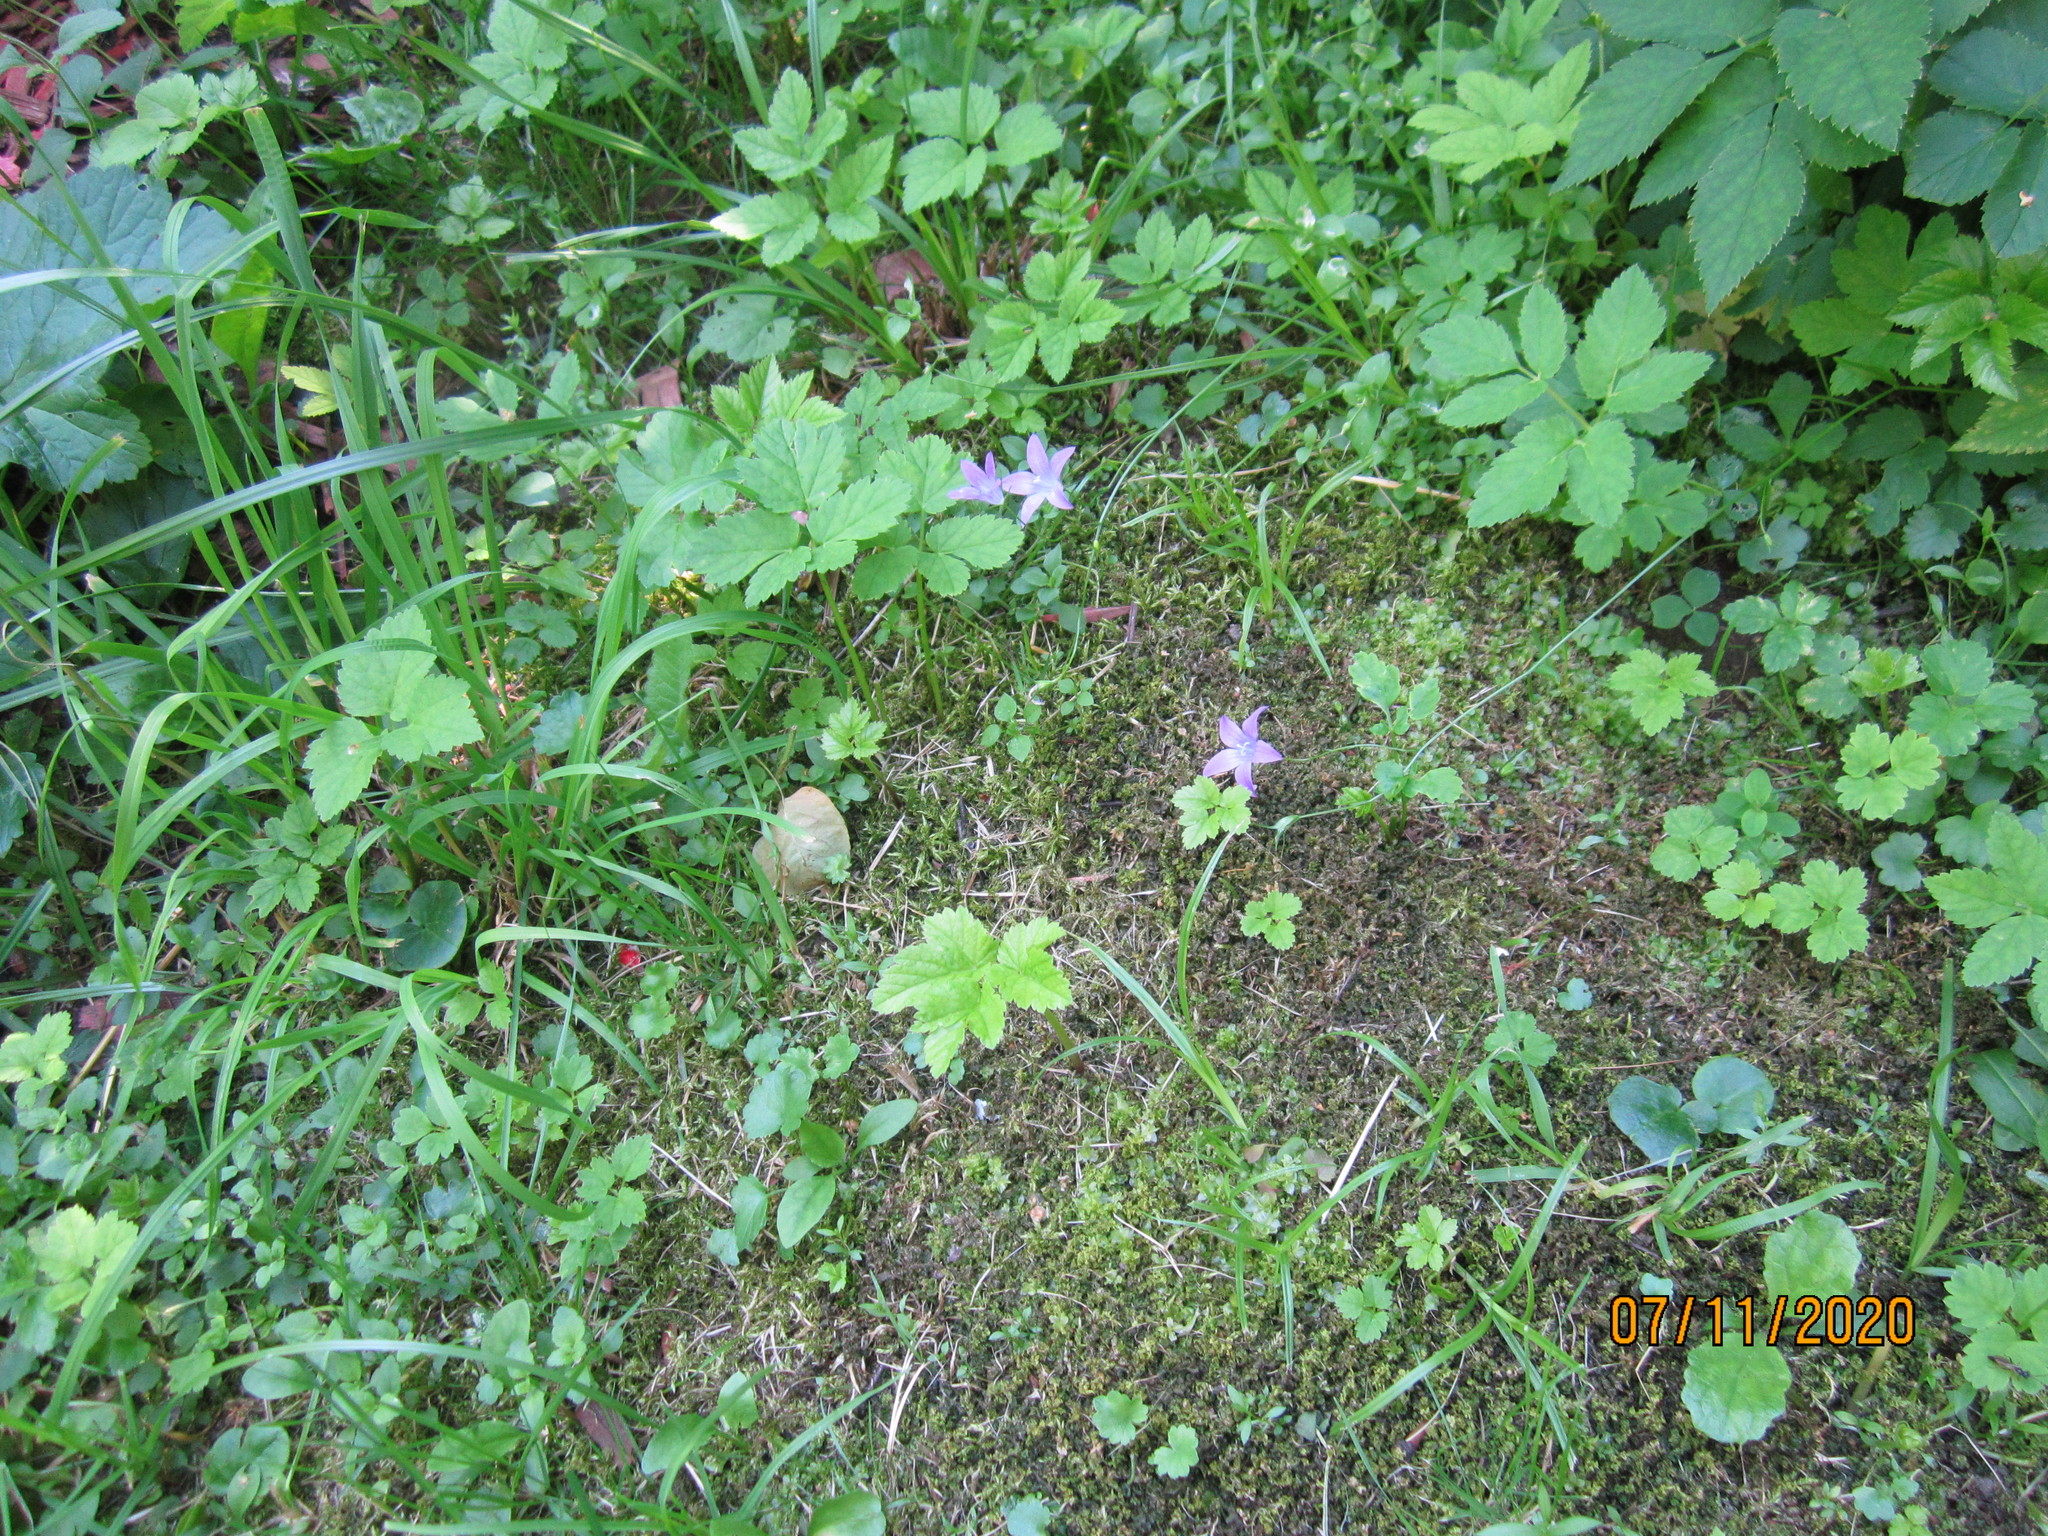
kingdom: Plantae
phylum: Tracheophyta
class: Magnoliopsida
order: Asterales
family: Campanulaceae
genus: Campanula
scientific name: Campanula patula
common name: Spreading bellflower
